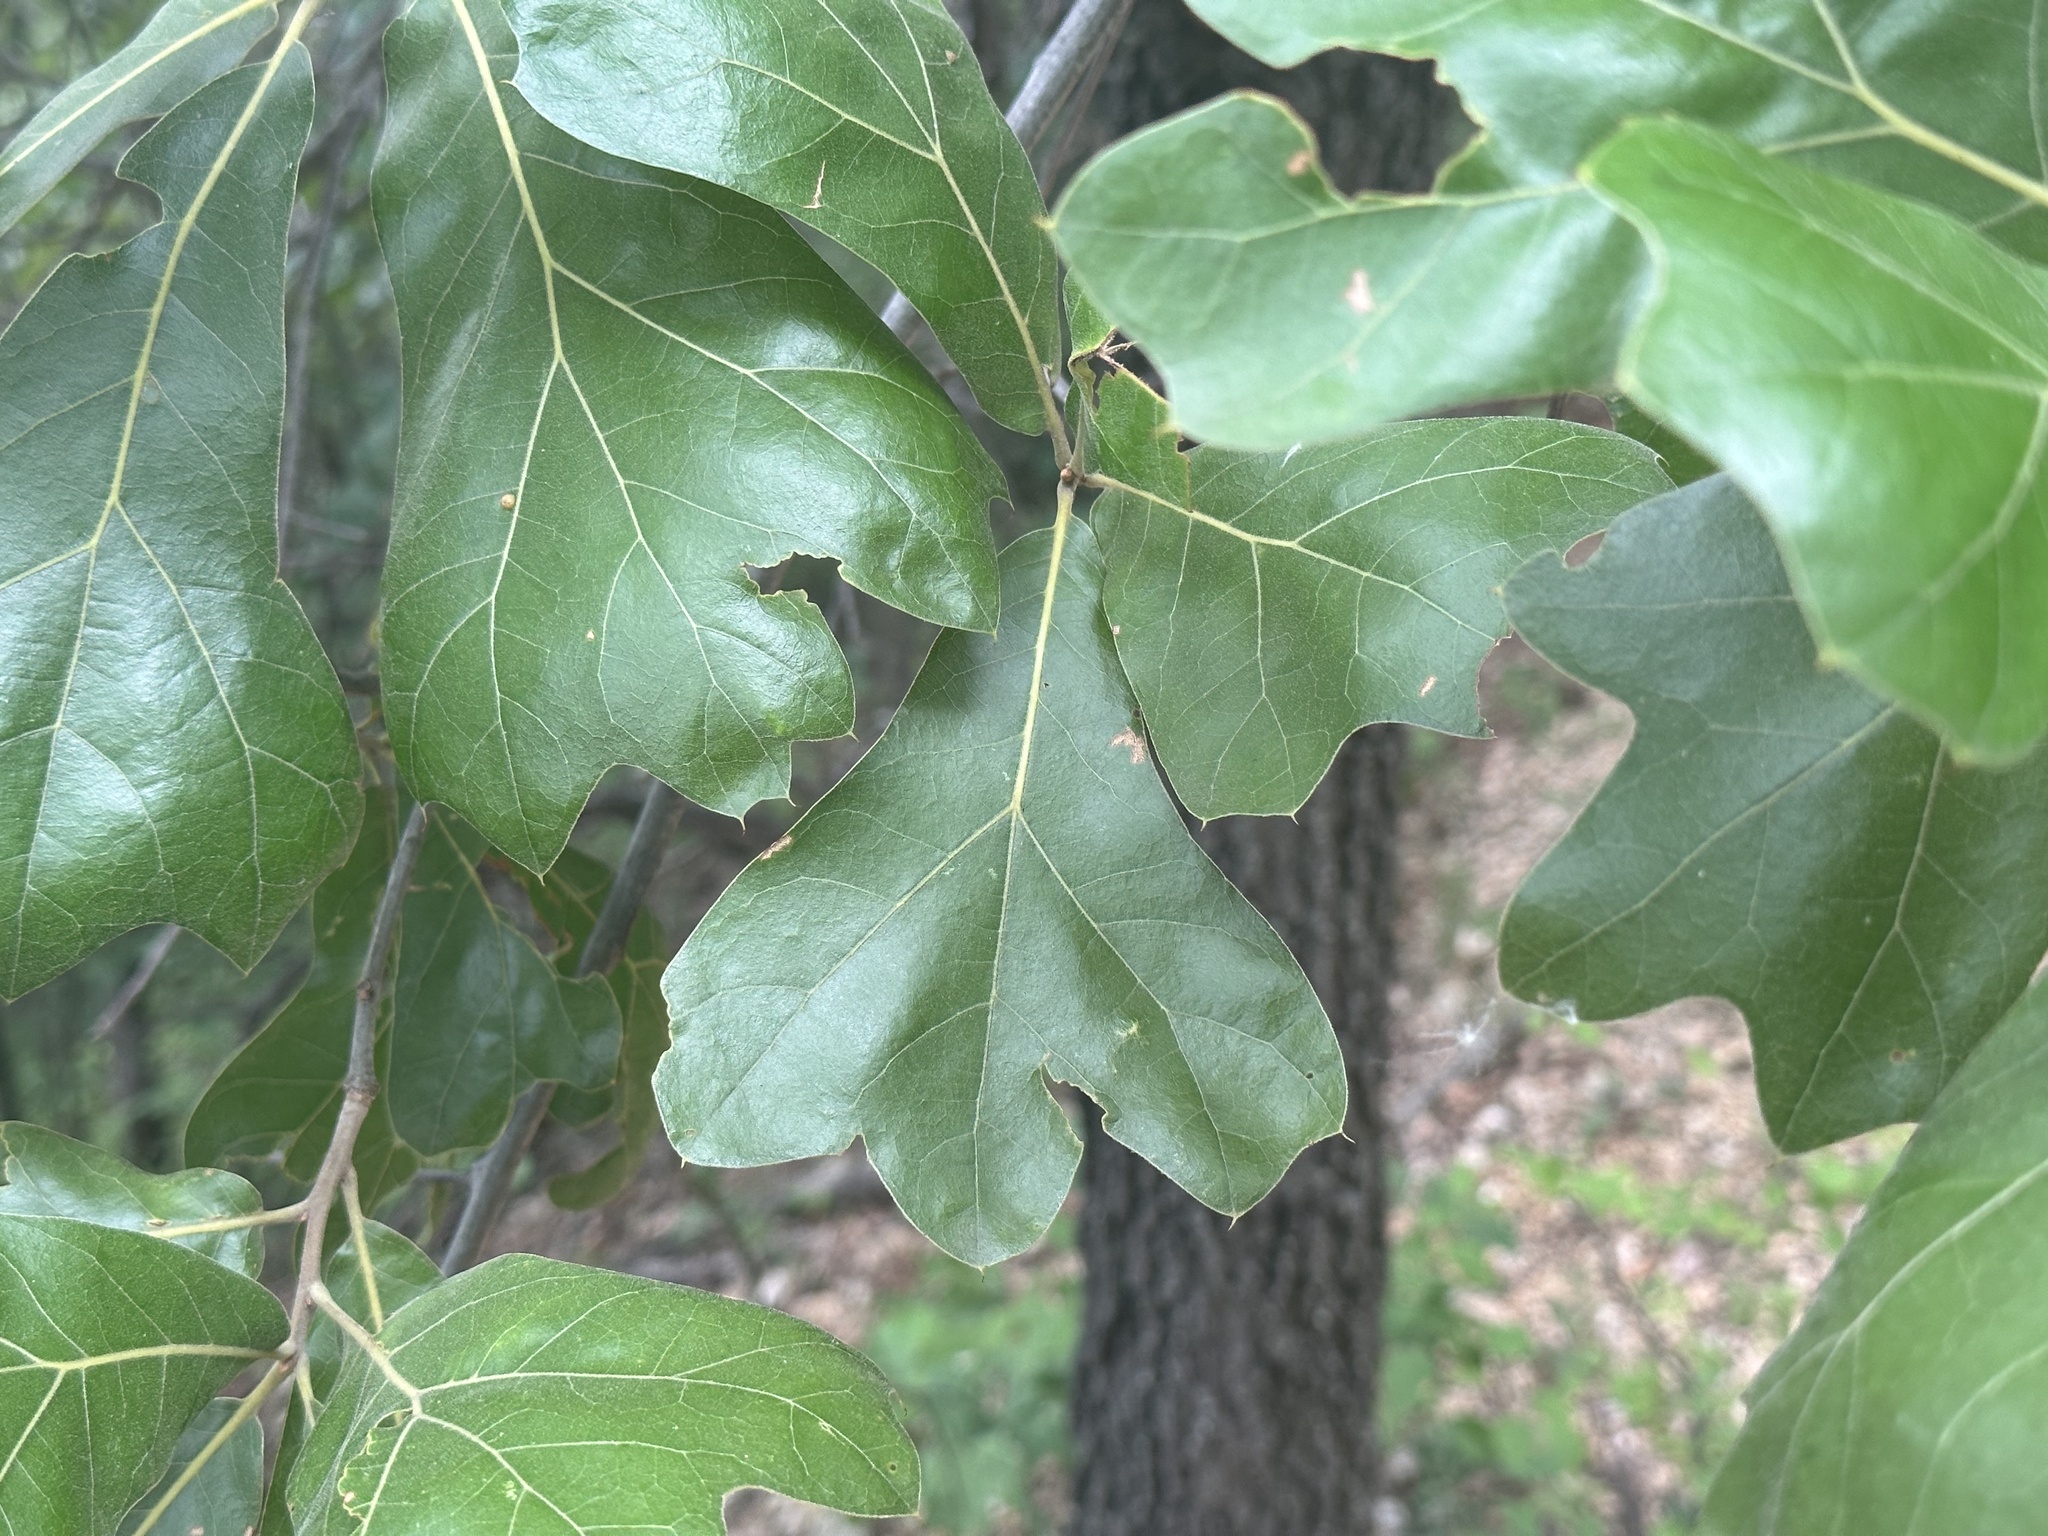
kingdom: Plantae
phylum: Tracheophyta
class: Magnoliopsida
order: Fagales
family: Fagaceae
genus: Quercus
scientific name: Quercus marilandica
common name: Blackjack oak
